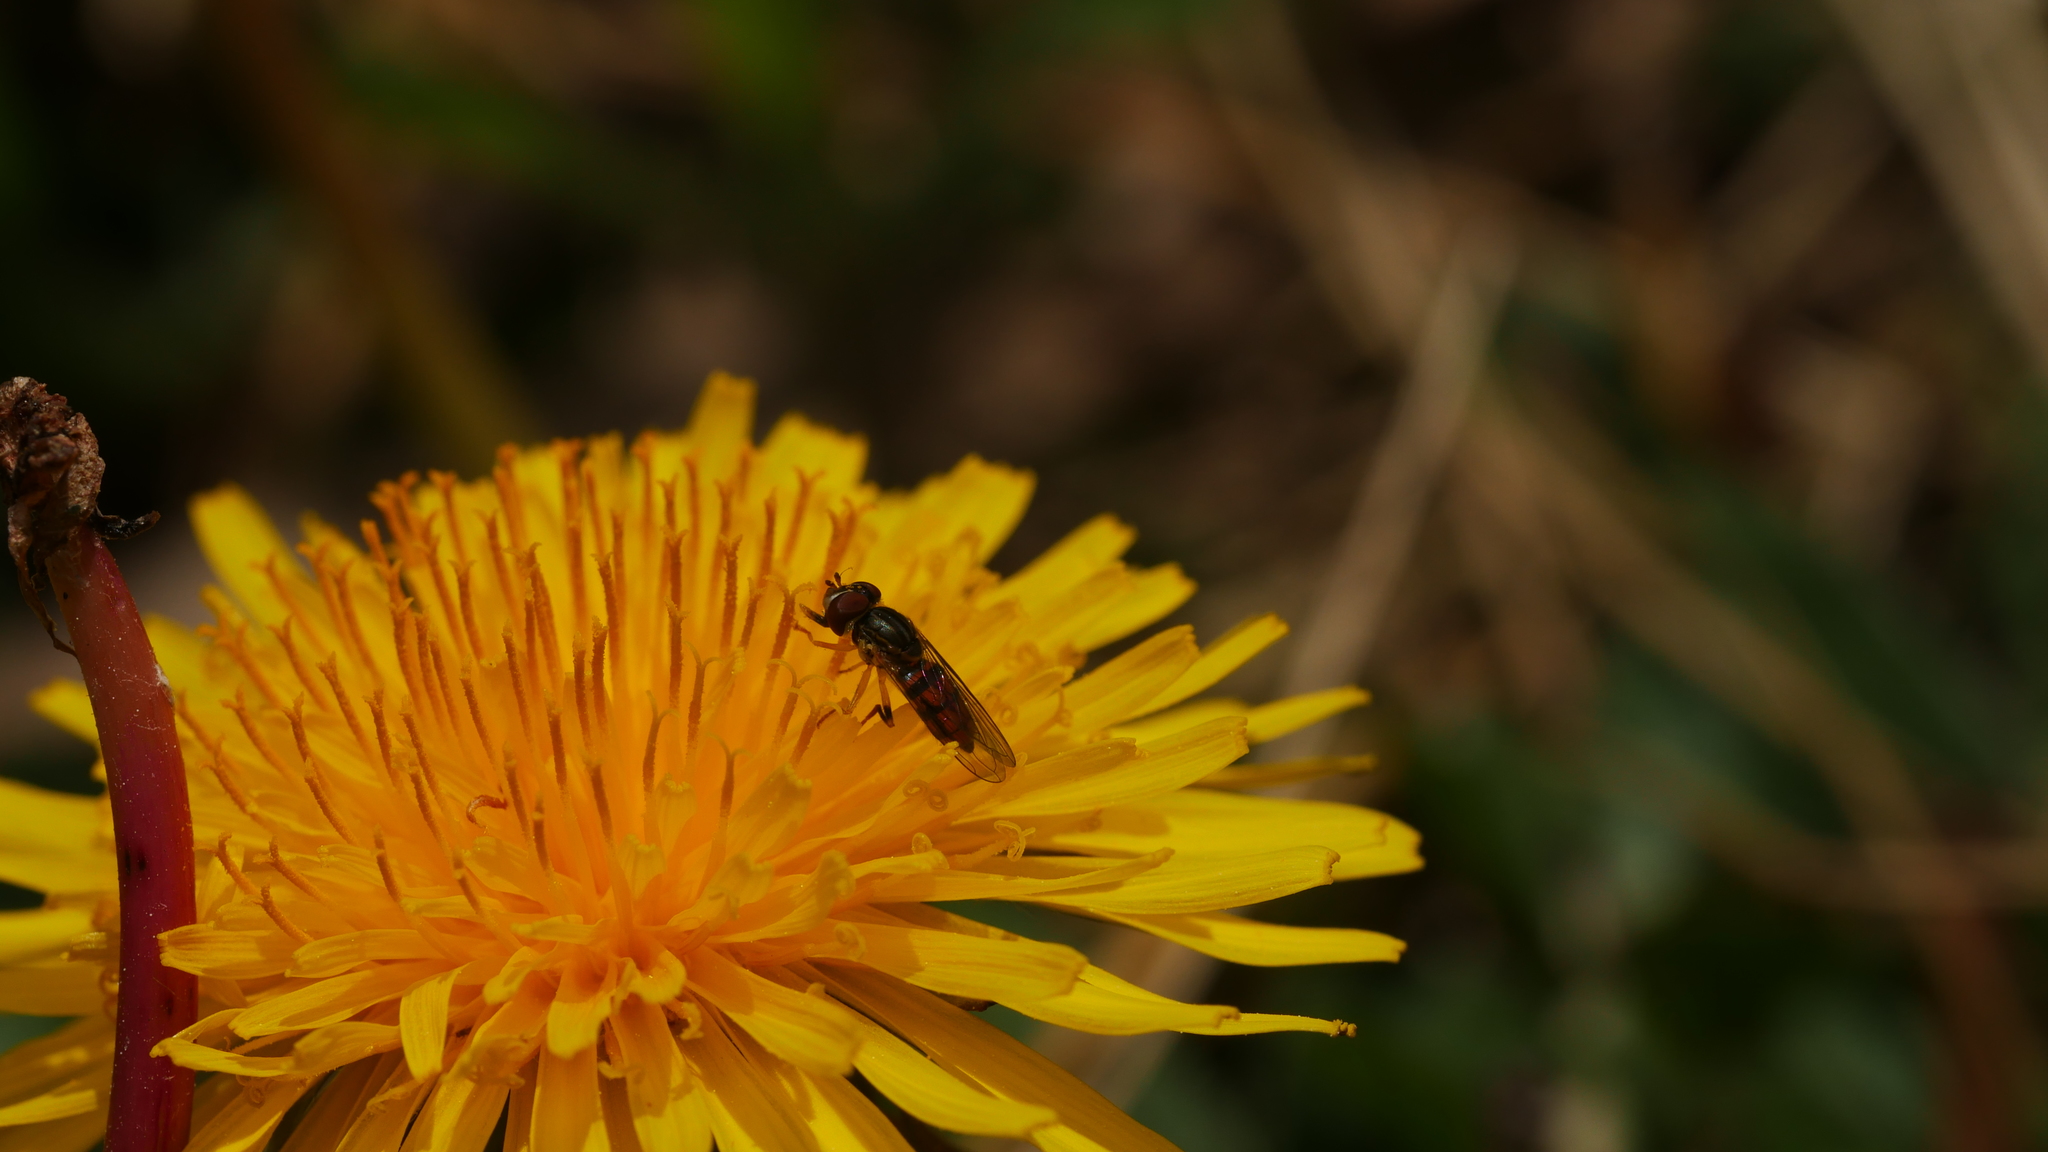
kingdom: Animalia
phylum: Arthropoda
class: Insecta
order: Diptera
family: Syrphidae
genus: Toxomerus
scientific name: Toxomerus boscii
